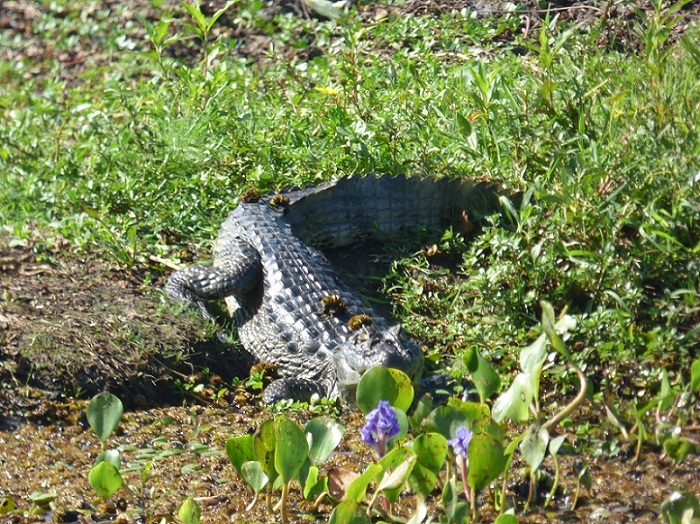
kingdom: Animalia
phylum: Chordata
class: Crocodylia
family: Alligatoridae
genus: Caiman
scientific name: Caiman yacare
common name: Yacare caiman
